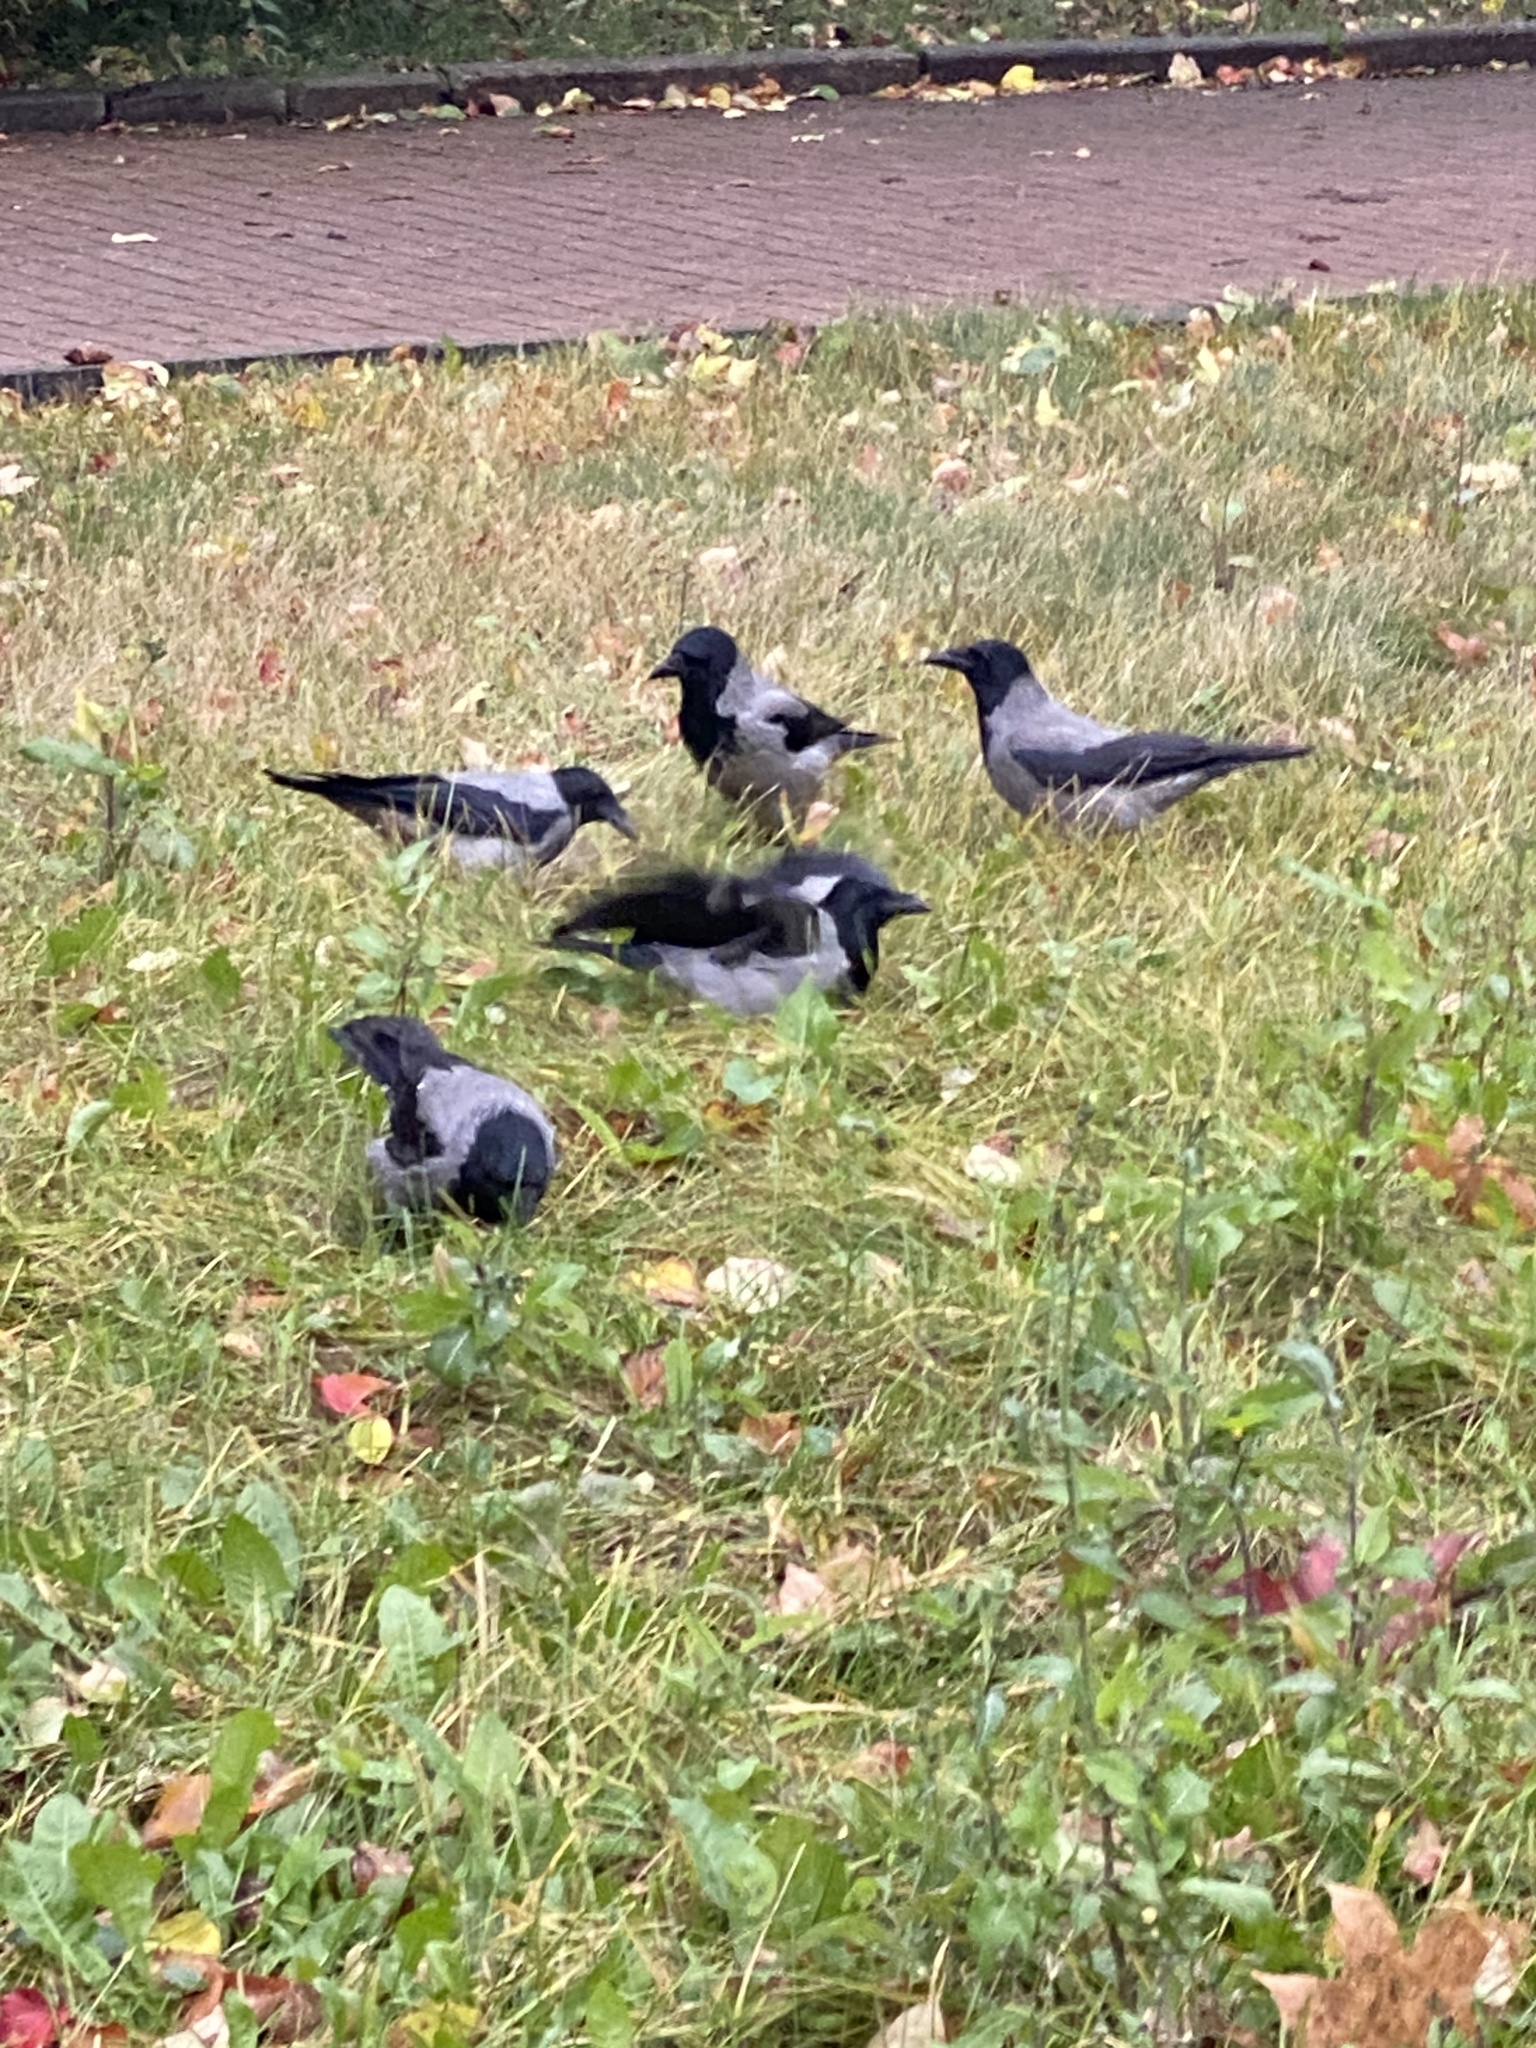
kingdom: Animalia
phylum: Chordata
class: Aves
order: Passeriformes
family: Corvidae
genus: Corvus
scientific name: Corvus cornix
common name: Hooded crow
